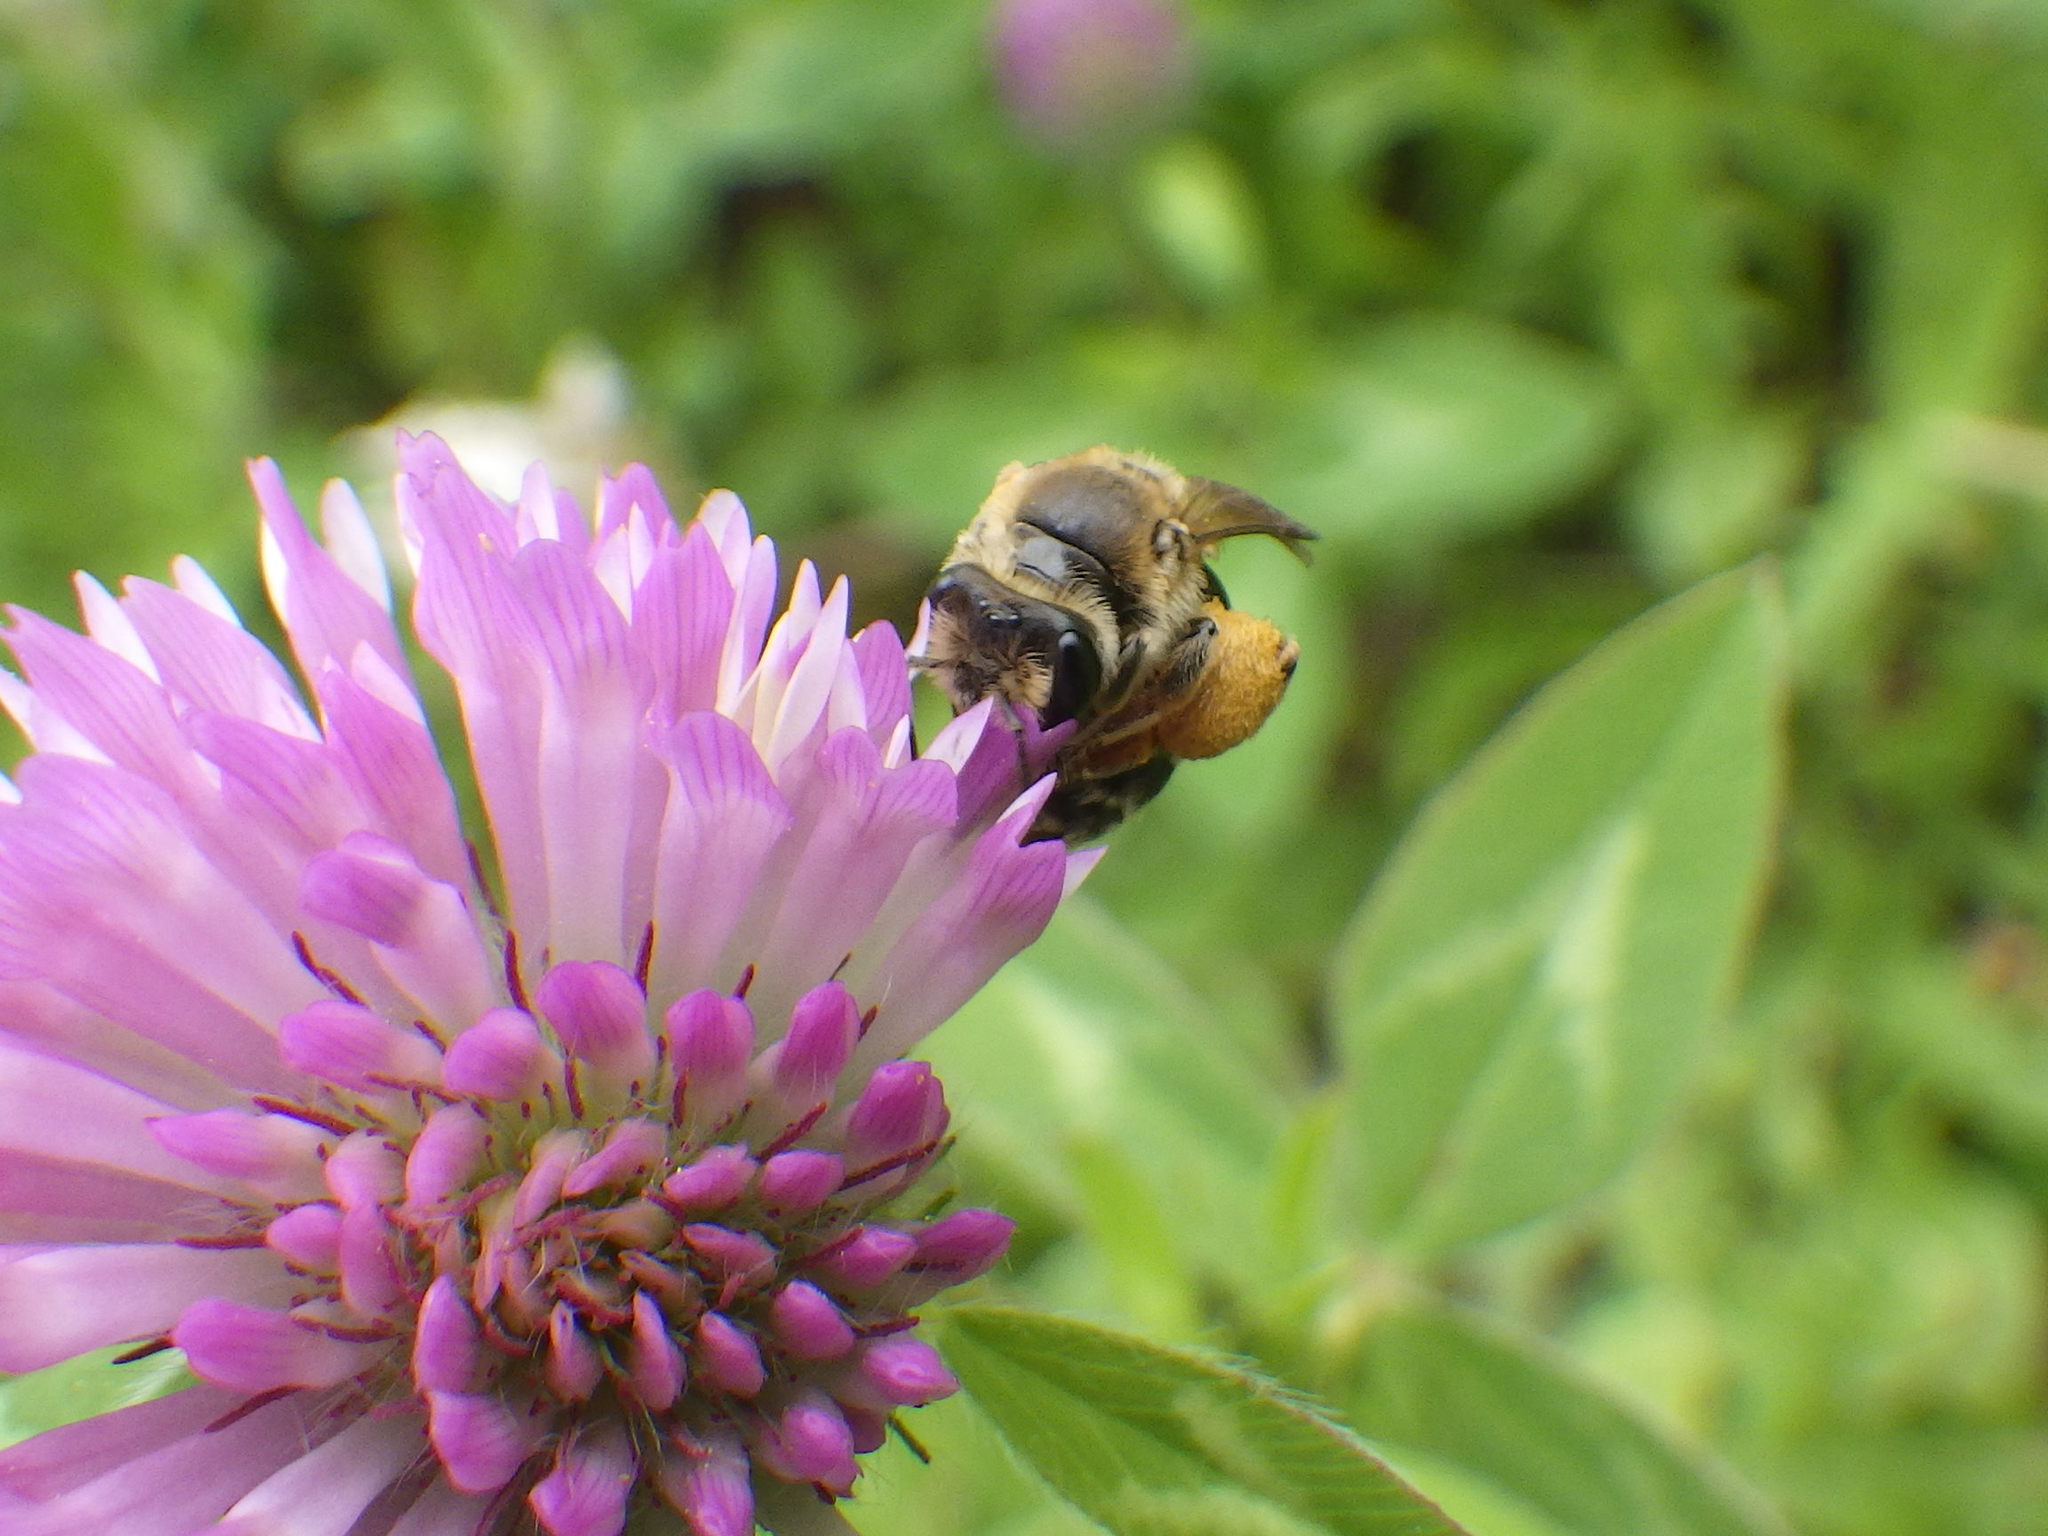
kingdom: Animalia
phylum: Arthropoda
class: Insecta
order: Hymenoptera
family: Andrenidae
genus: Andrena
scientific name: Andrena wilkella
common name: Wilke's mining bee
